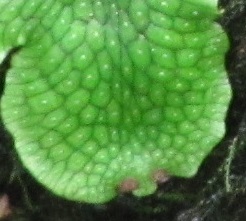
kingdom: Plantae
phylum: Marchantiophyta
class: Marchantiopsida
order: Marchantiales
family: Conocephalaceae
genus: Conocephalum
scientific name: Conocephalum salebrosum
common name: Cat-tongue liverwort
